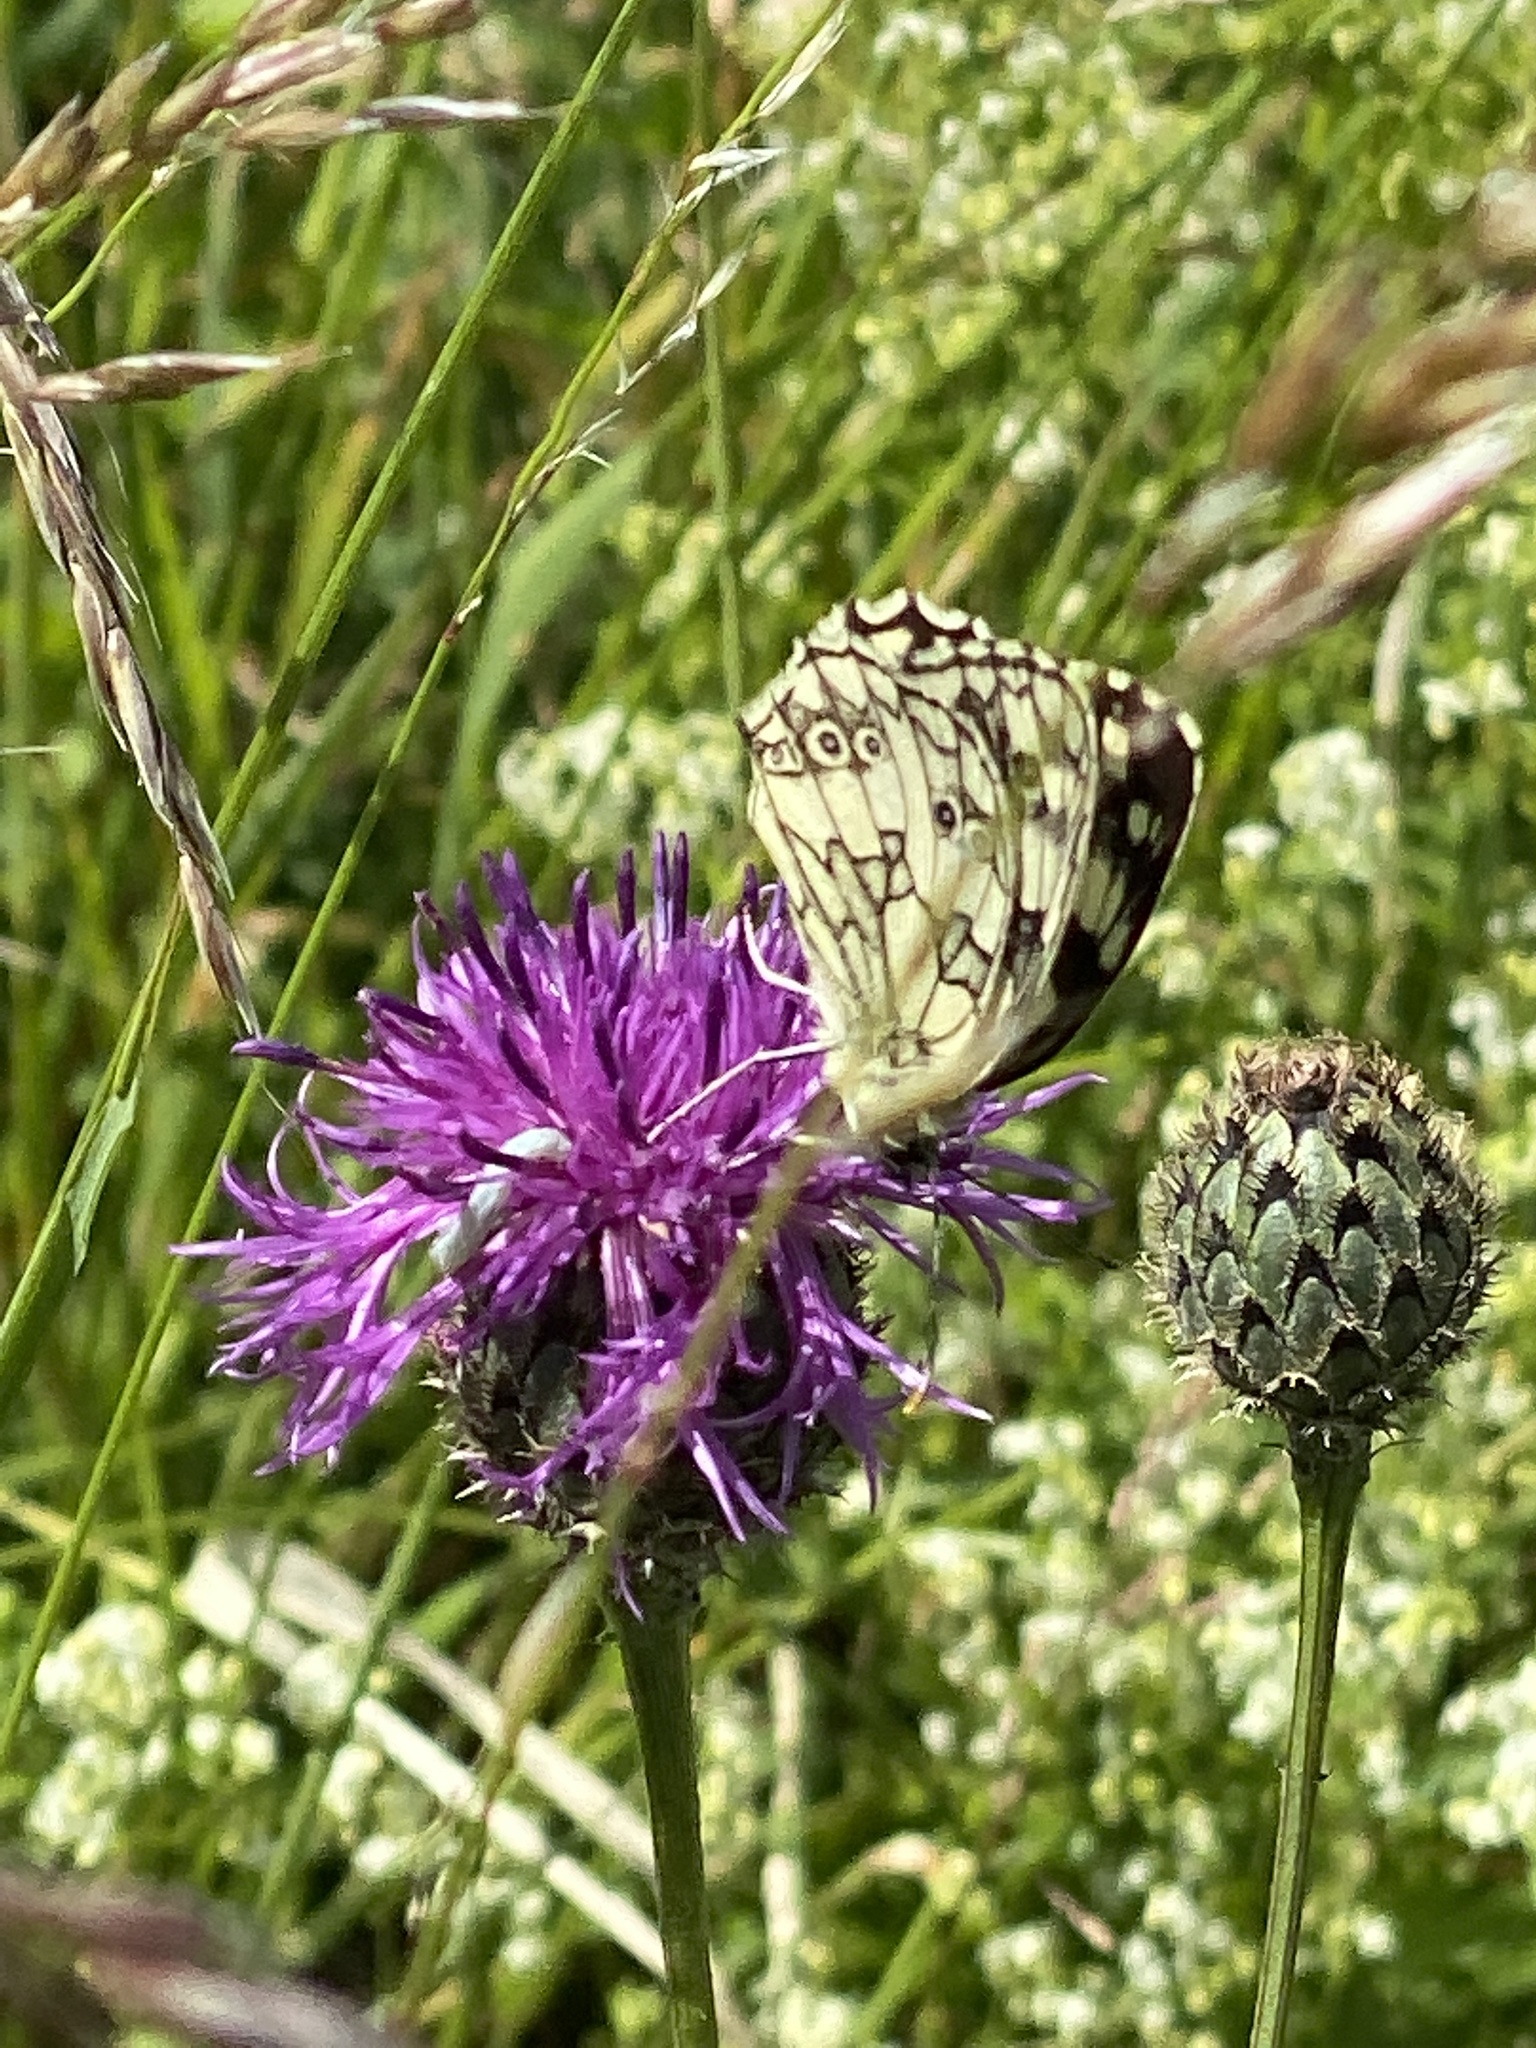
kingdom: Animalia
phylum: Arthropoda
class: Insecta
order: Lepidoptera
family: Nymphalidae
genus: Melanargia
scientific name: Melanargia galathea
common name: Marbled white
